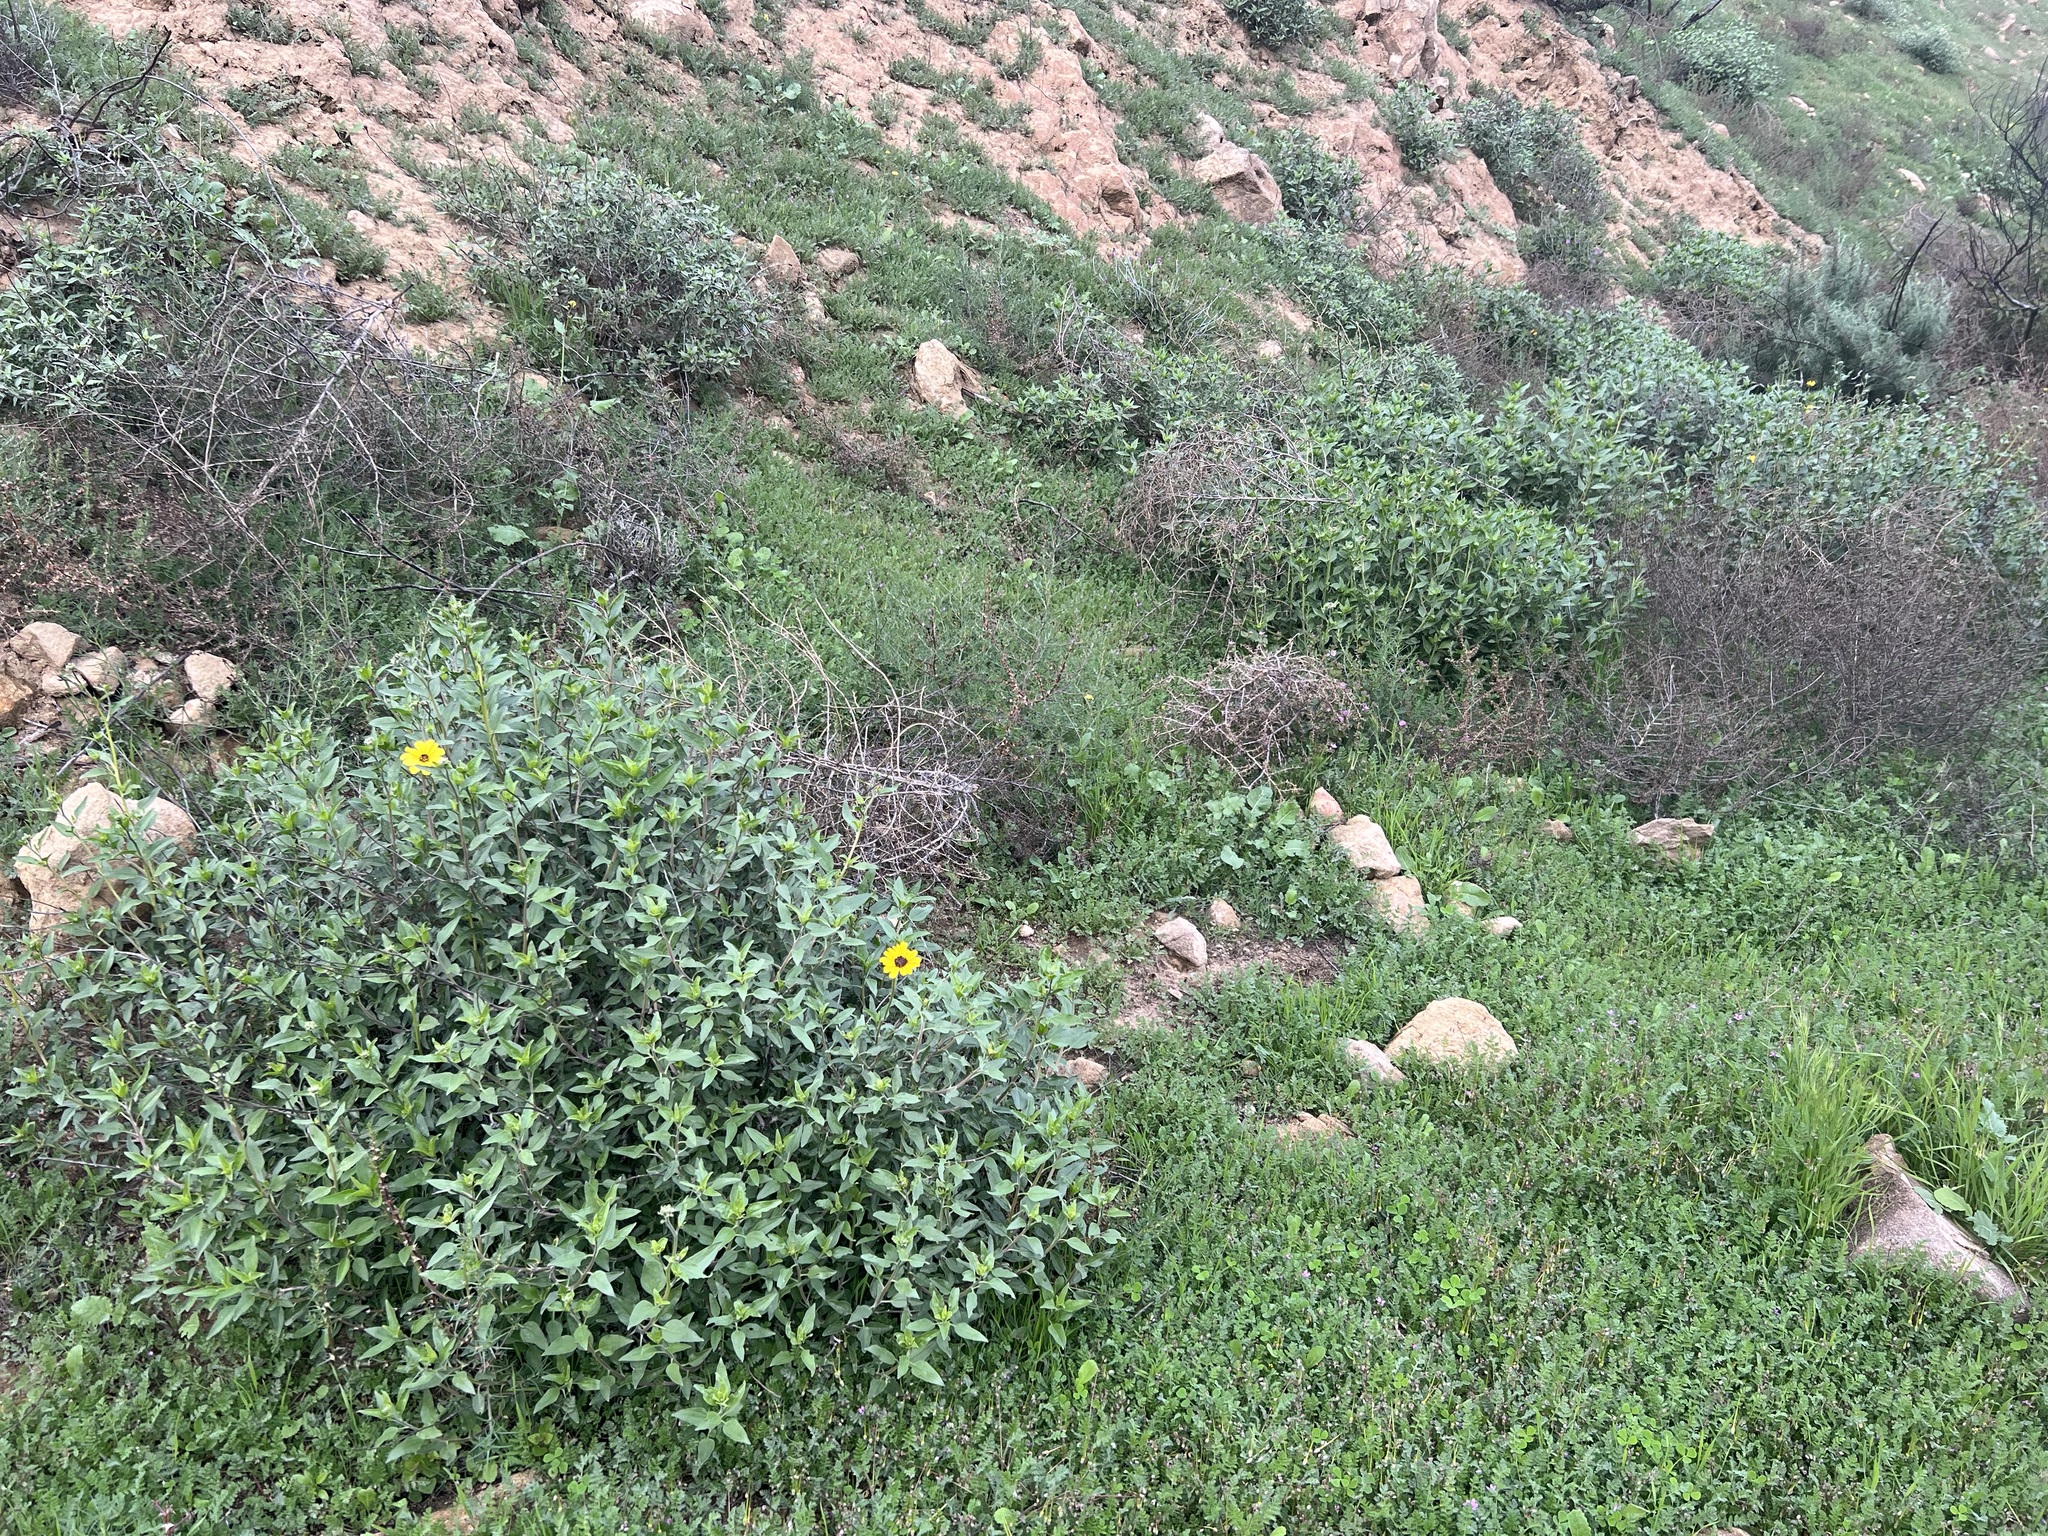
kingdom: Plantae
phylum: Tracheophyta
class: Magnoliopsida
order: Asterales
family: Asteraceae
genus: Encelia
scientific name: Encelia californica
